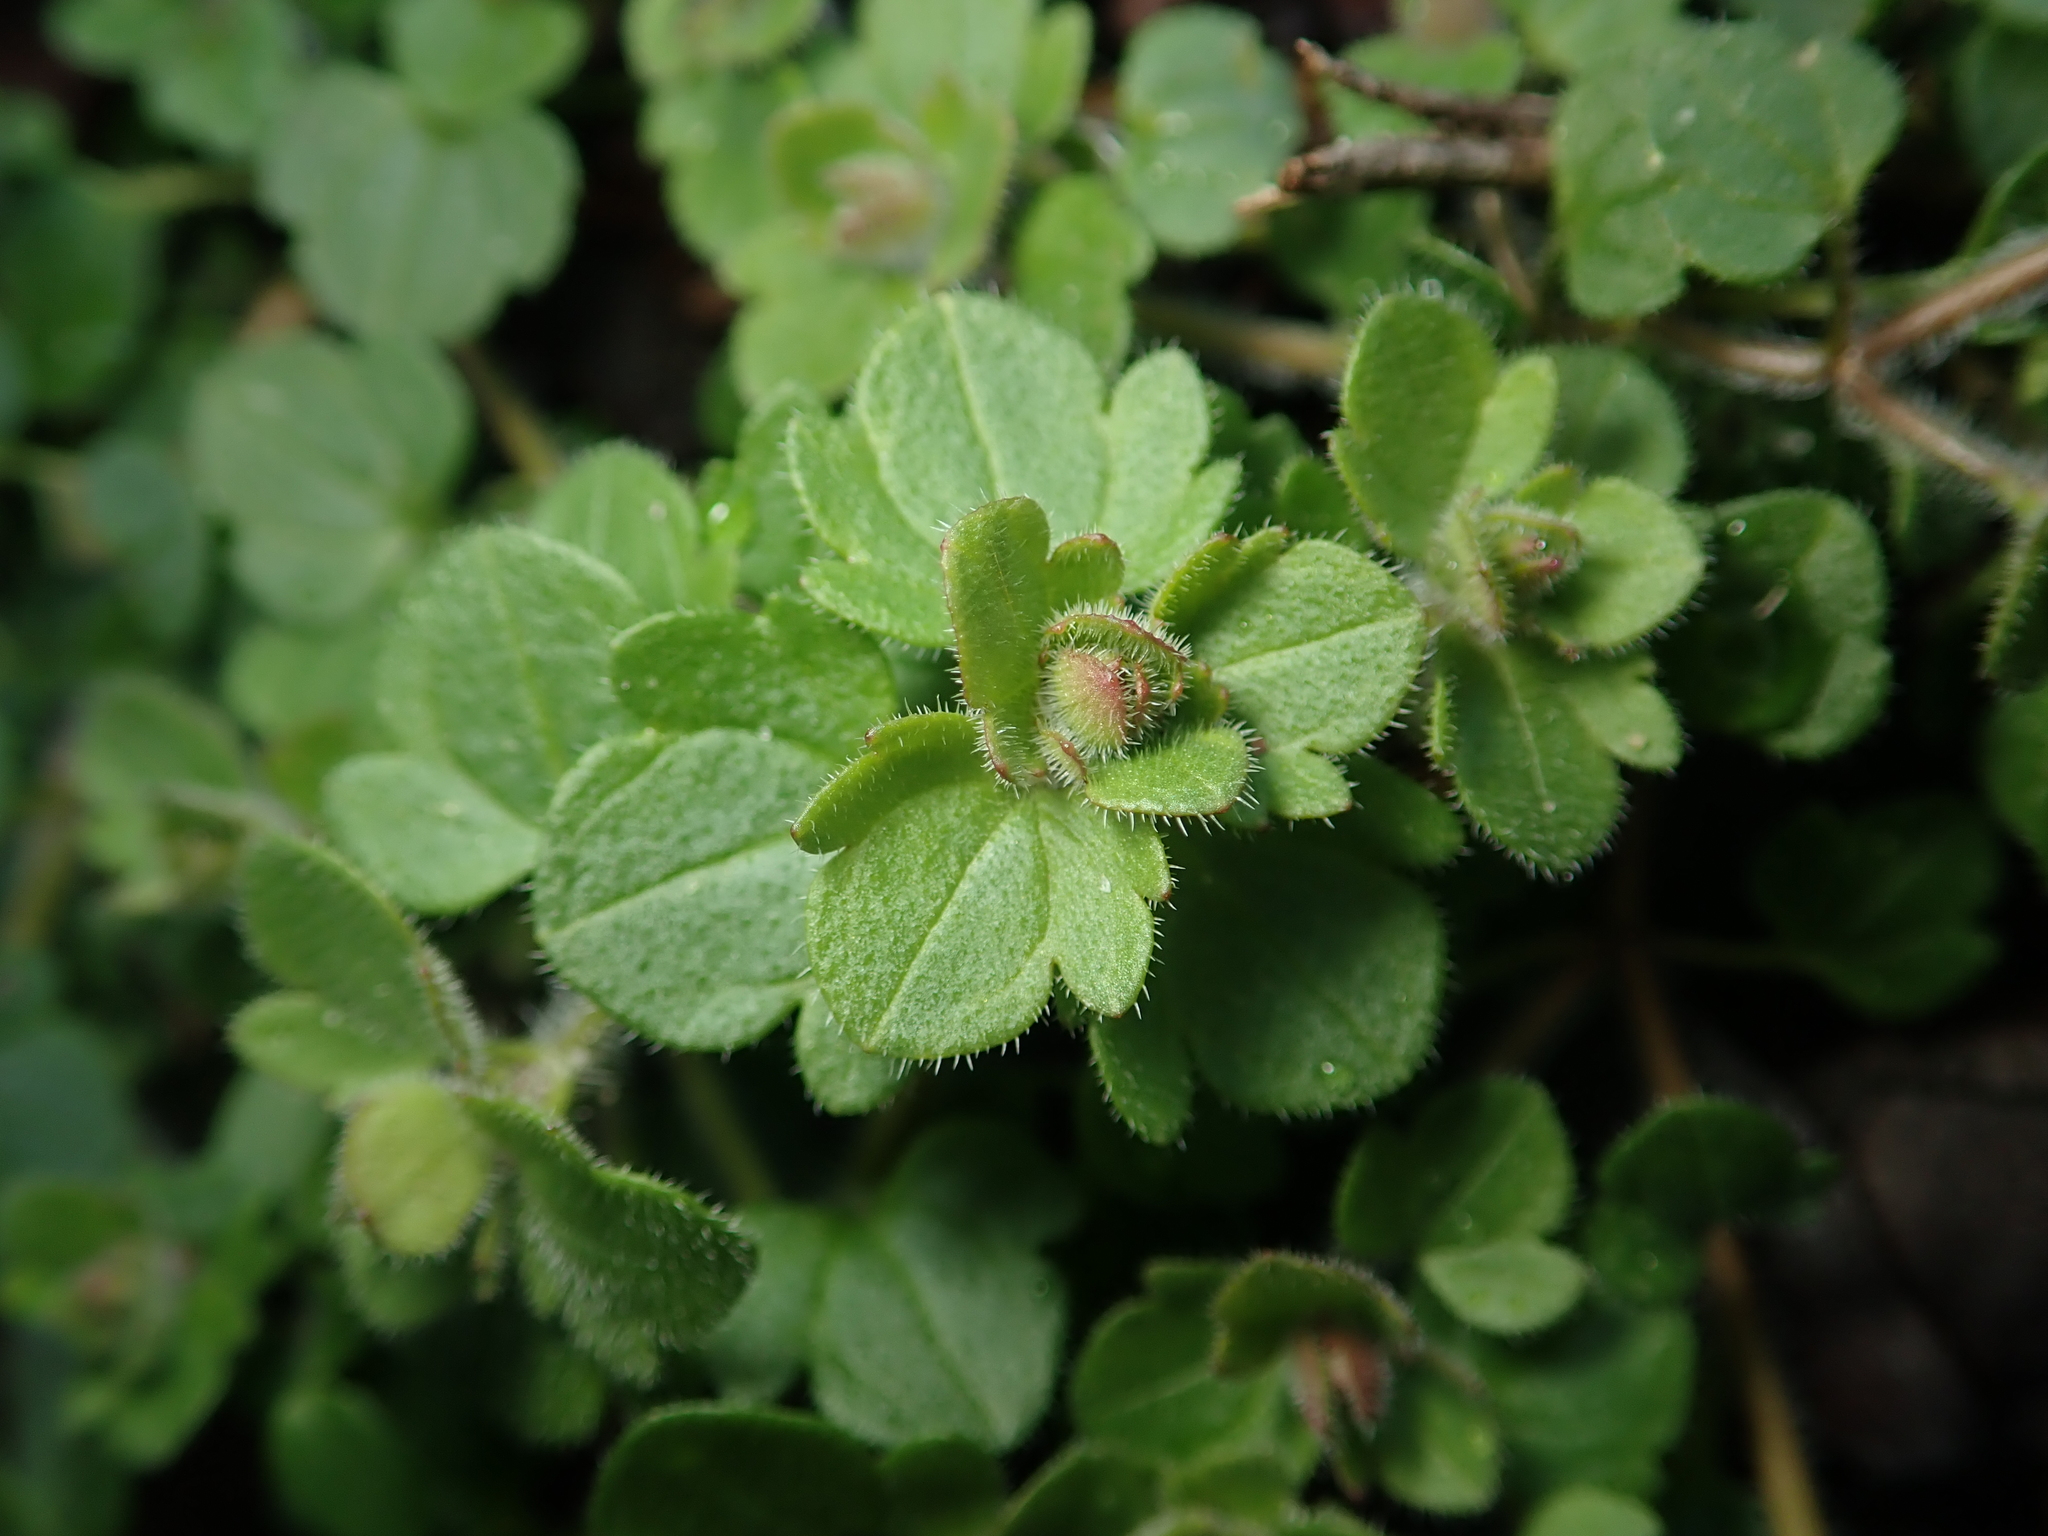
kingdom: Plantae
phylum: Tracheophyta
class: Magnoliopsida
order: Lamiales
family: Plantaginaceae
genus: Veronica
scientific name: Veronica hederifolia
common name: Ivy-leaved speedwell
